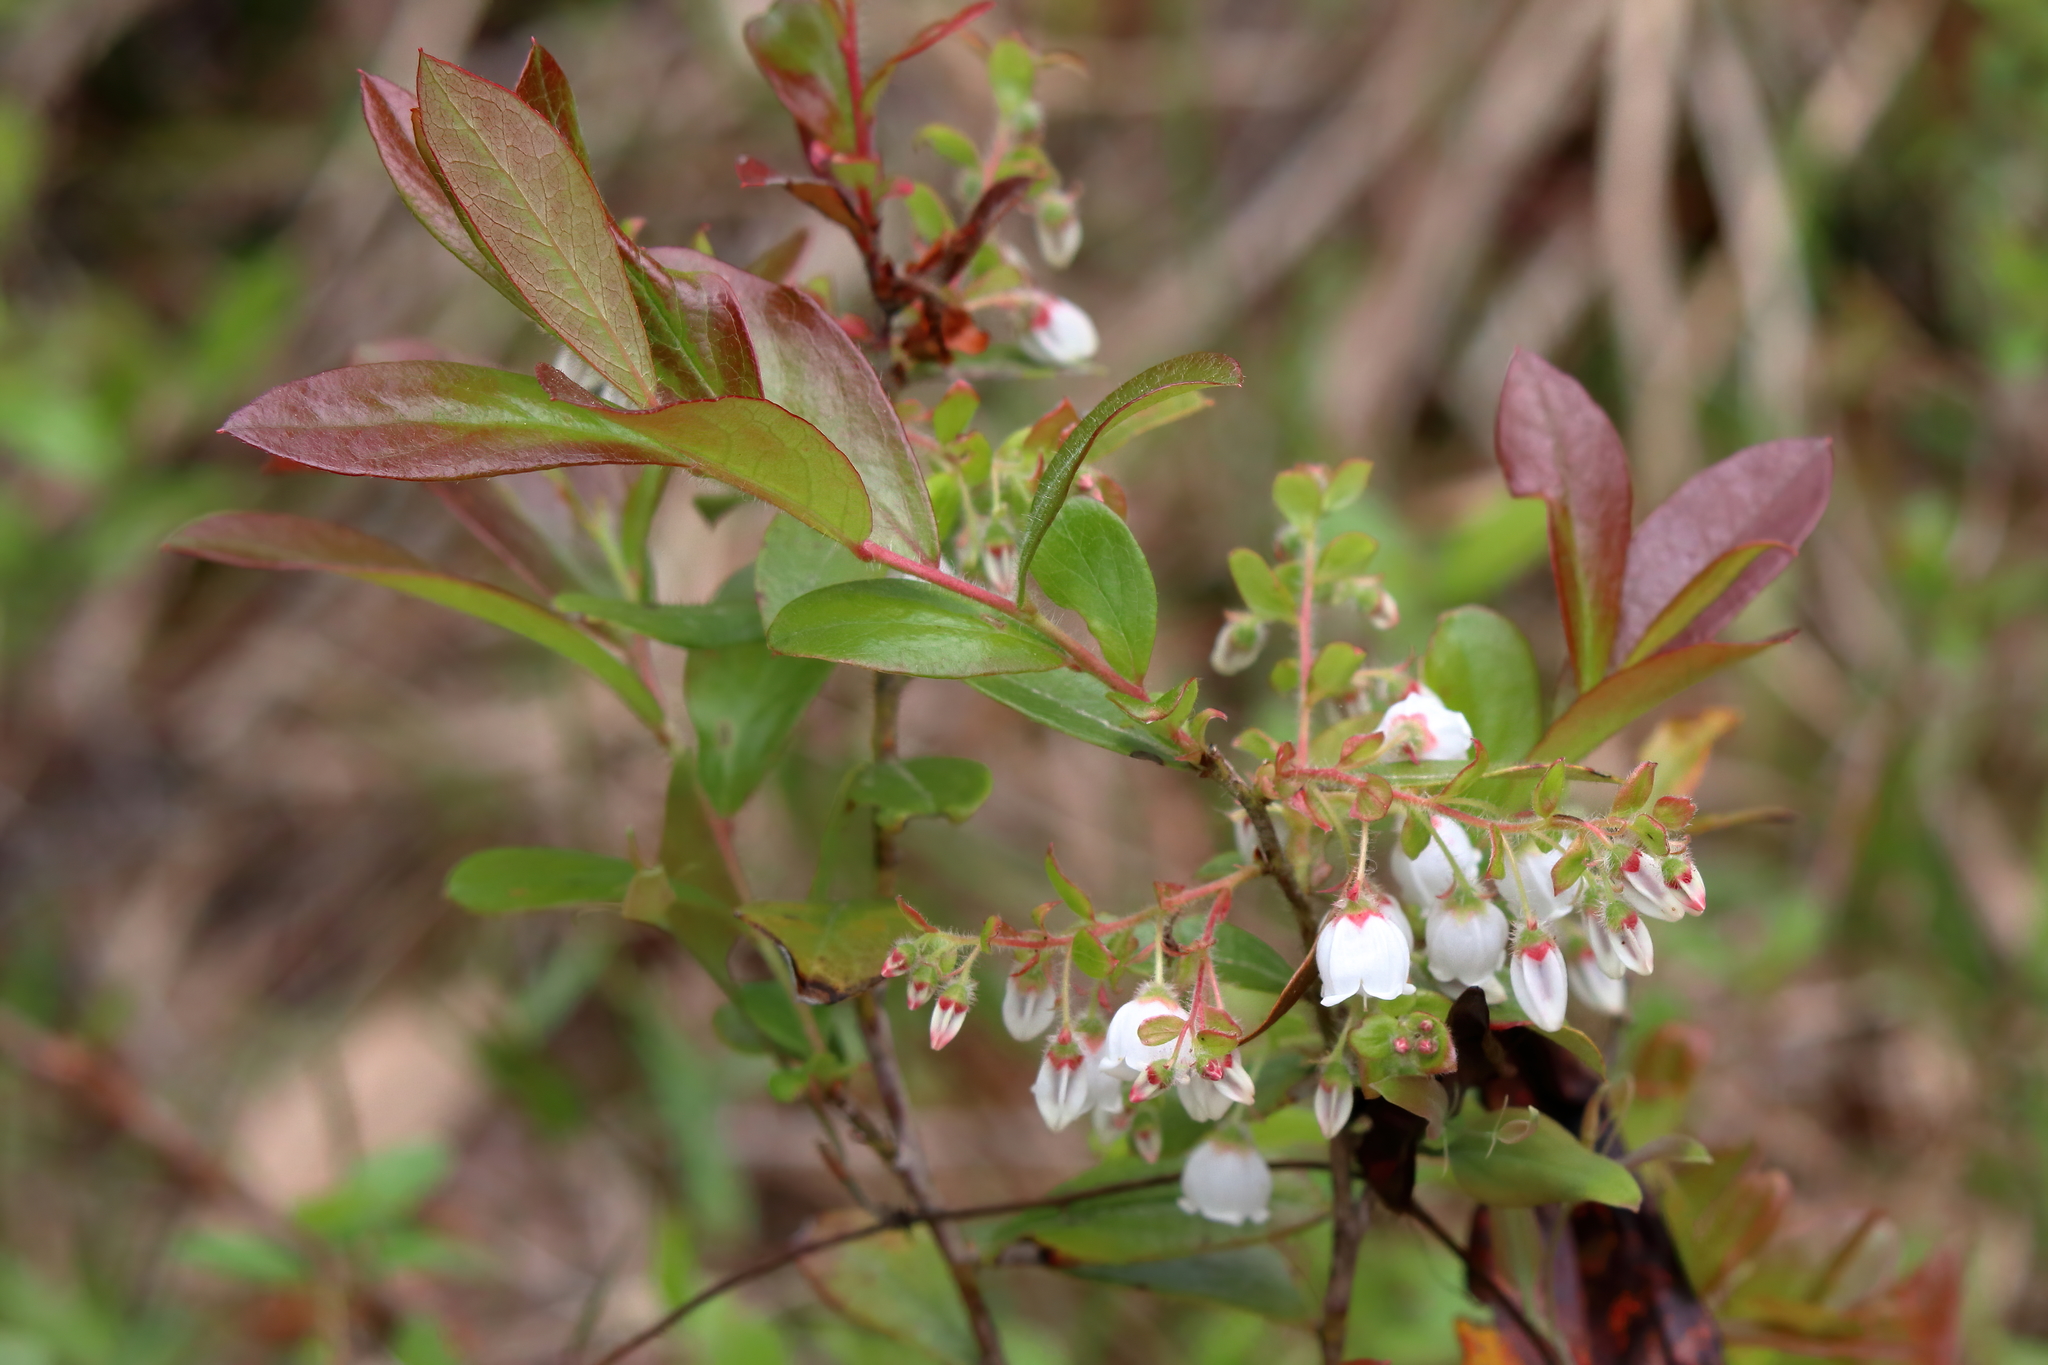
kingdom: Plantae
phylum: Tracheophyta
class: Magnoliopsida
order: Ericales
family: Ericaceae
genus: Gaylussacia
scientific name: Gaylussacia mosieri
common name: Hirsute huckleberry
